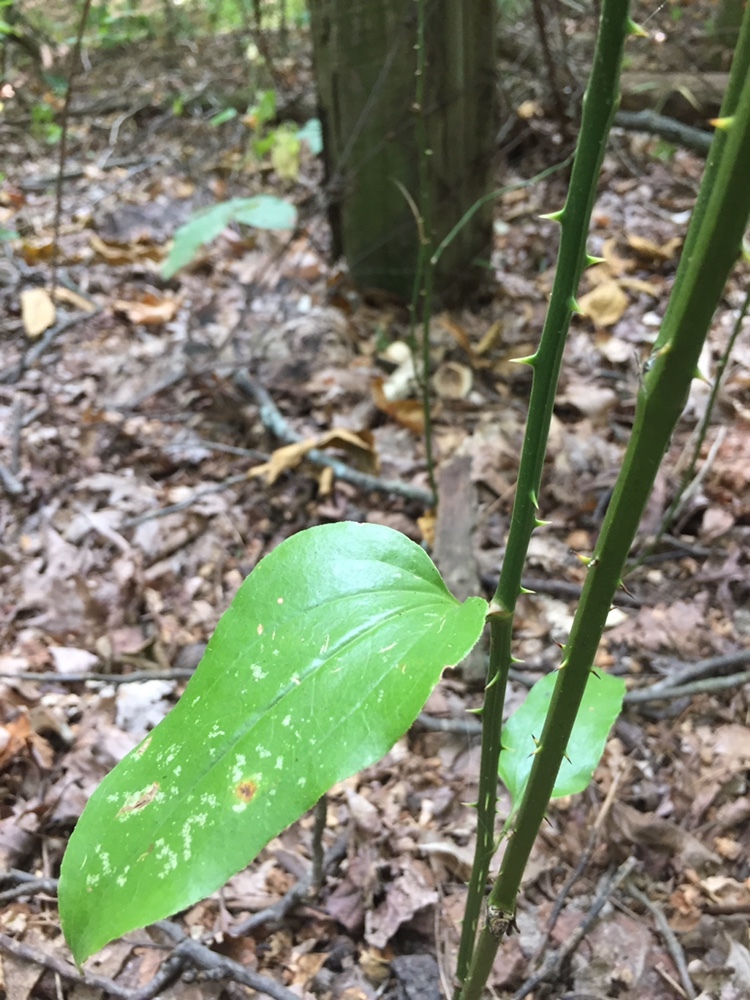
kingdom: Plantae
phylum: Tracheophyta
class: Liliopsida
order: Liliales
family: Smilacaceae
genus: Smilax
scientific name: Smilax rotundifolia
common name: Bullbriar
